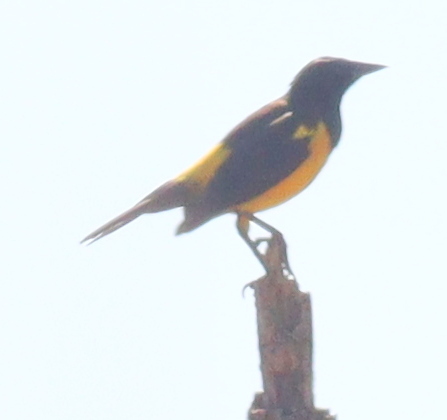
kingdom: Animalia
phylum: Chordata
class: Aves
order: Passeriformes
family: Icteridae
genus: Pseudoleistes
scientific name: Pseudoleistes guirahuro
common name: Yellow-rumped marshbird
